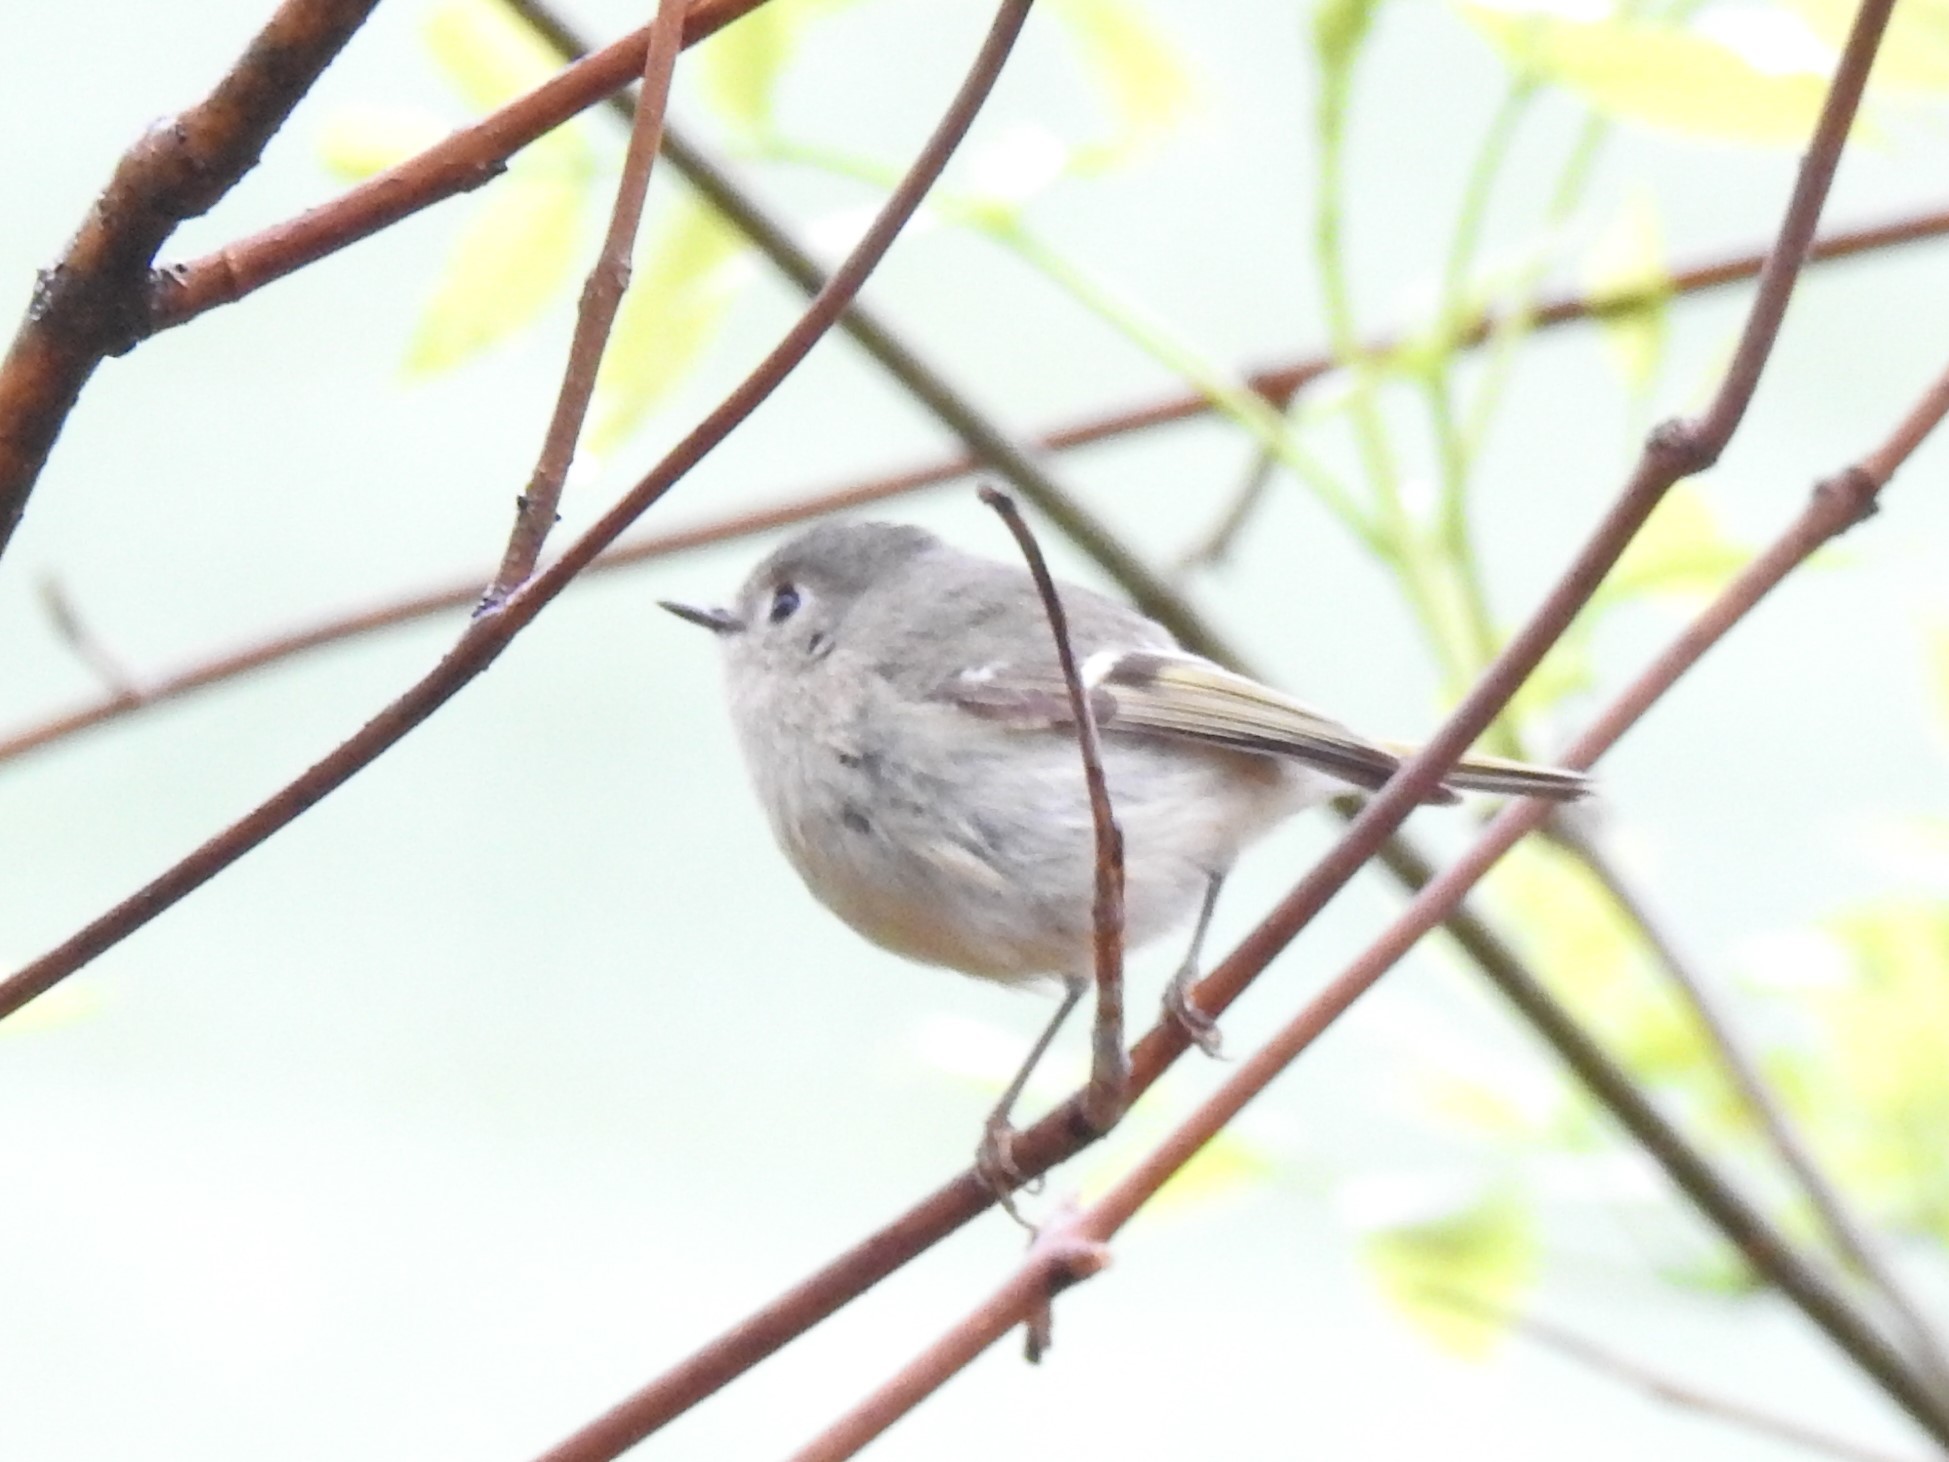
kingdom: Animalia
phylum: Chordata
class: Aves
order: Passeriformes
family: Regulidae
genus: Regulus
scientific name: Regulus calendula
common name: Ruby-crowned kinglet
